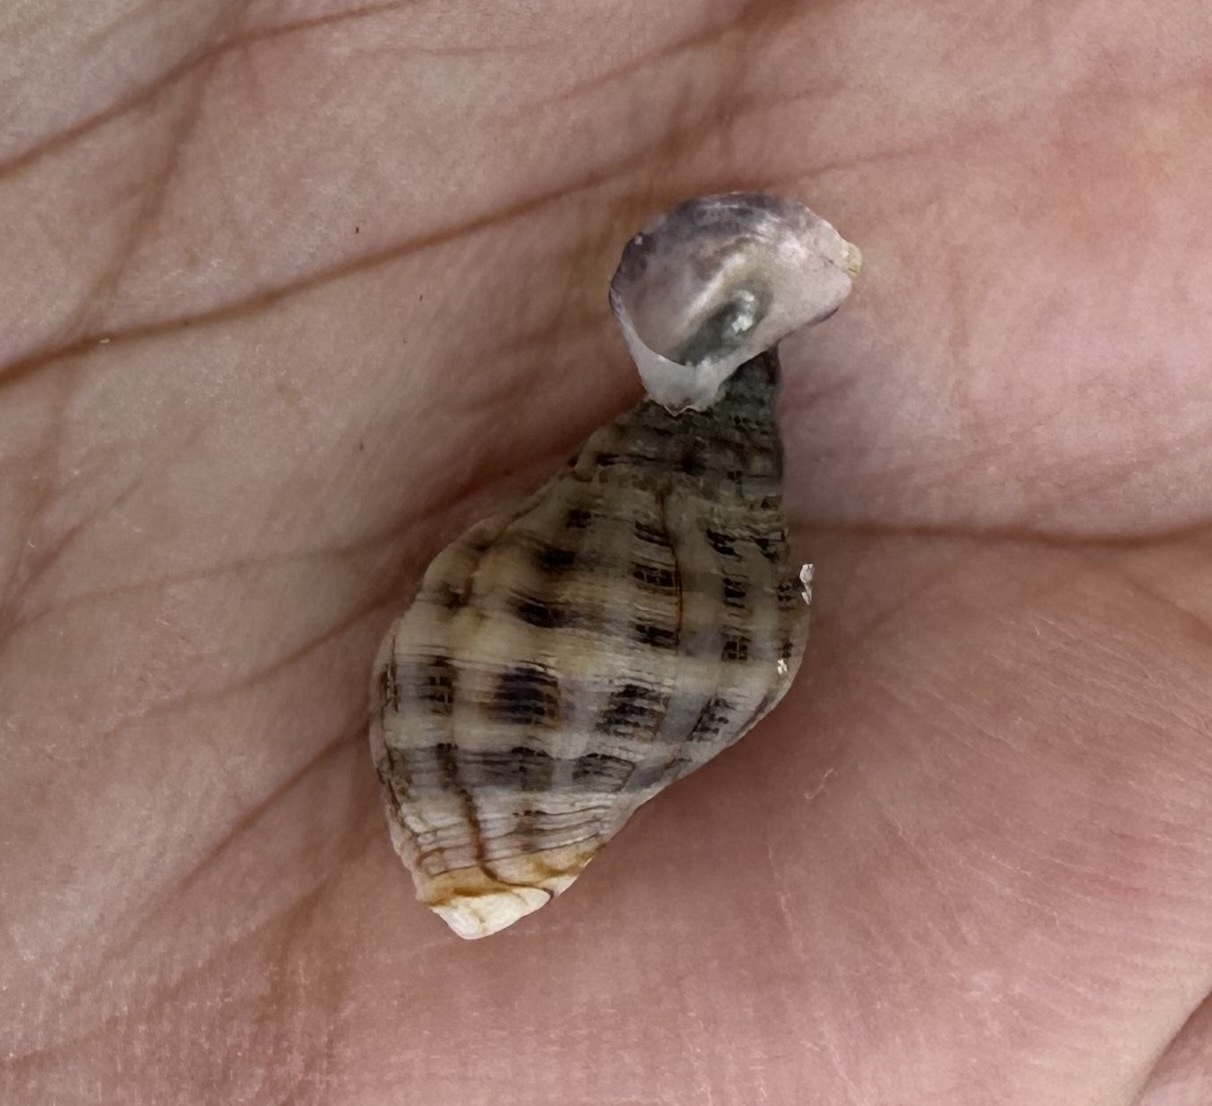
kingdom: Animalia
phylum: Mollusca
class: Gastropoda
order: Neogastropoda
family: Muricidae
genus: Agnewia
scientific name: Agnewia tritoniformis
